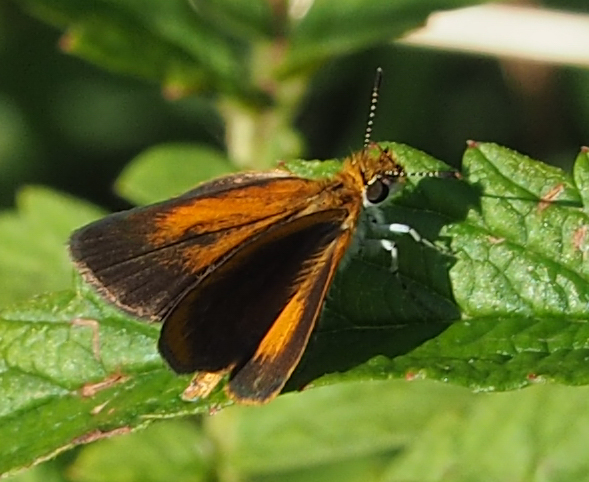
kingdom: Animalia
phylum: Arthropoda
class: Insecta
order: Lepidoptera
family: Hesperiidae
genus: Ancyloxypha
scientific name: Ancyloxypha numitor
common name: Least skipper
